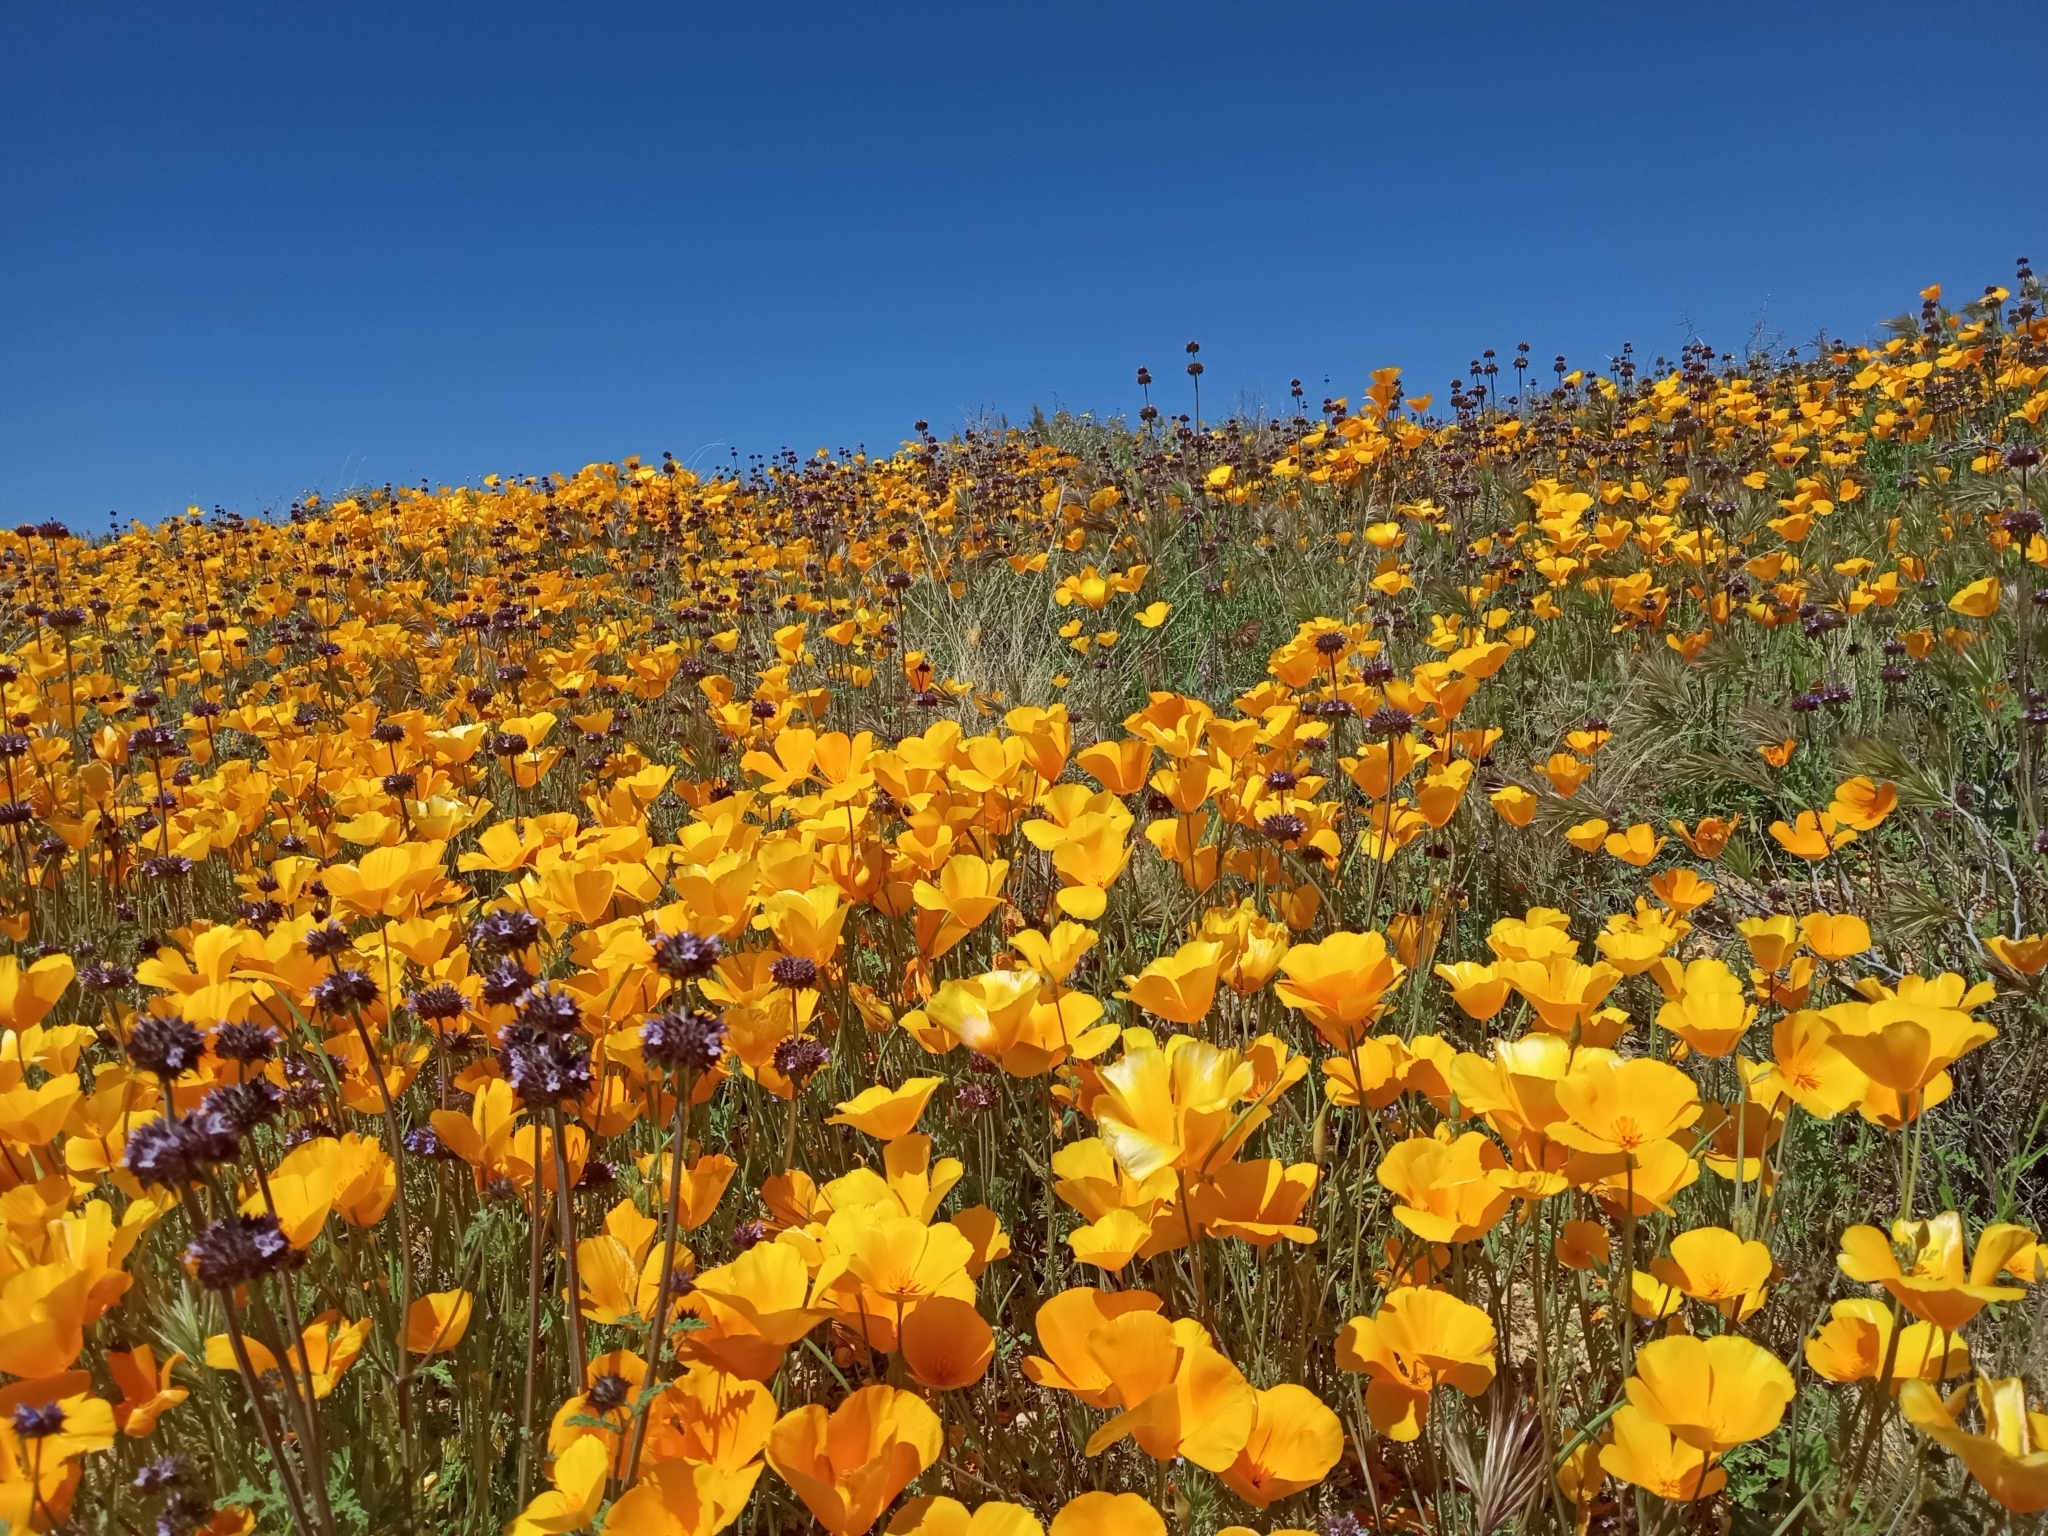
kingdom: Plantae
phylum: Tracheophyta
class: Magnoliopsida
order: Ranunculales
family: Papaveraceae
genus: Eschscholzia
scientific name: Eschscholzia californica
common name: California poppy
